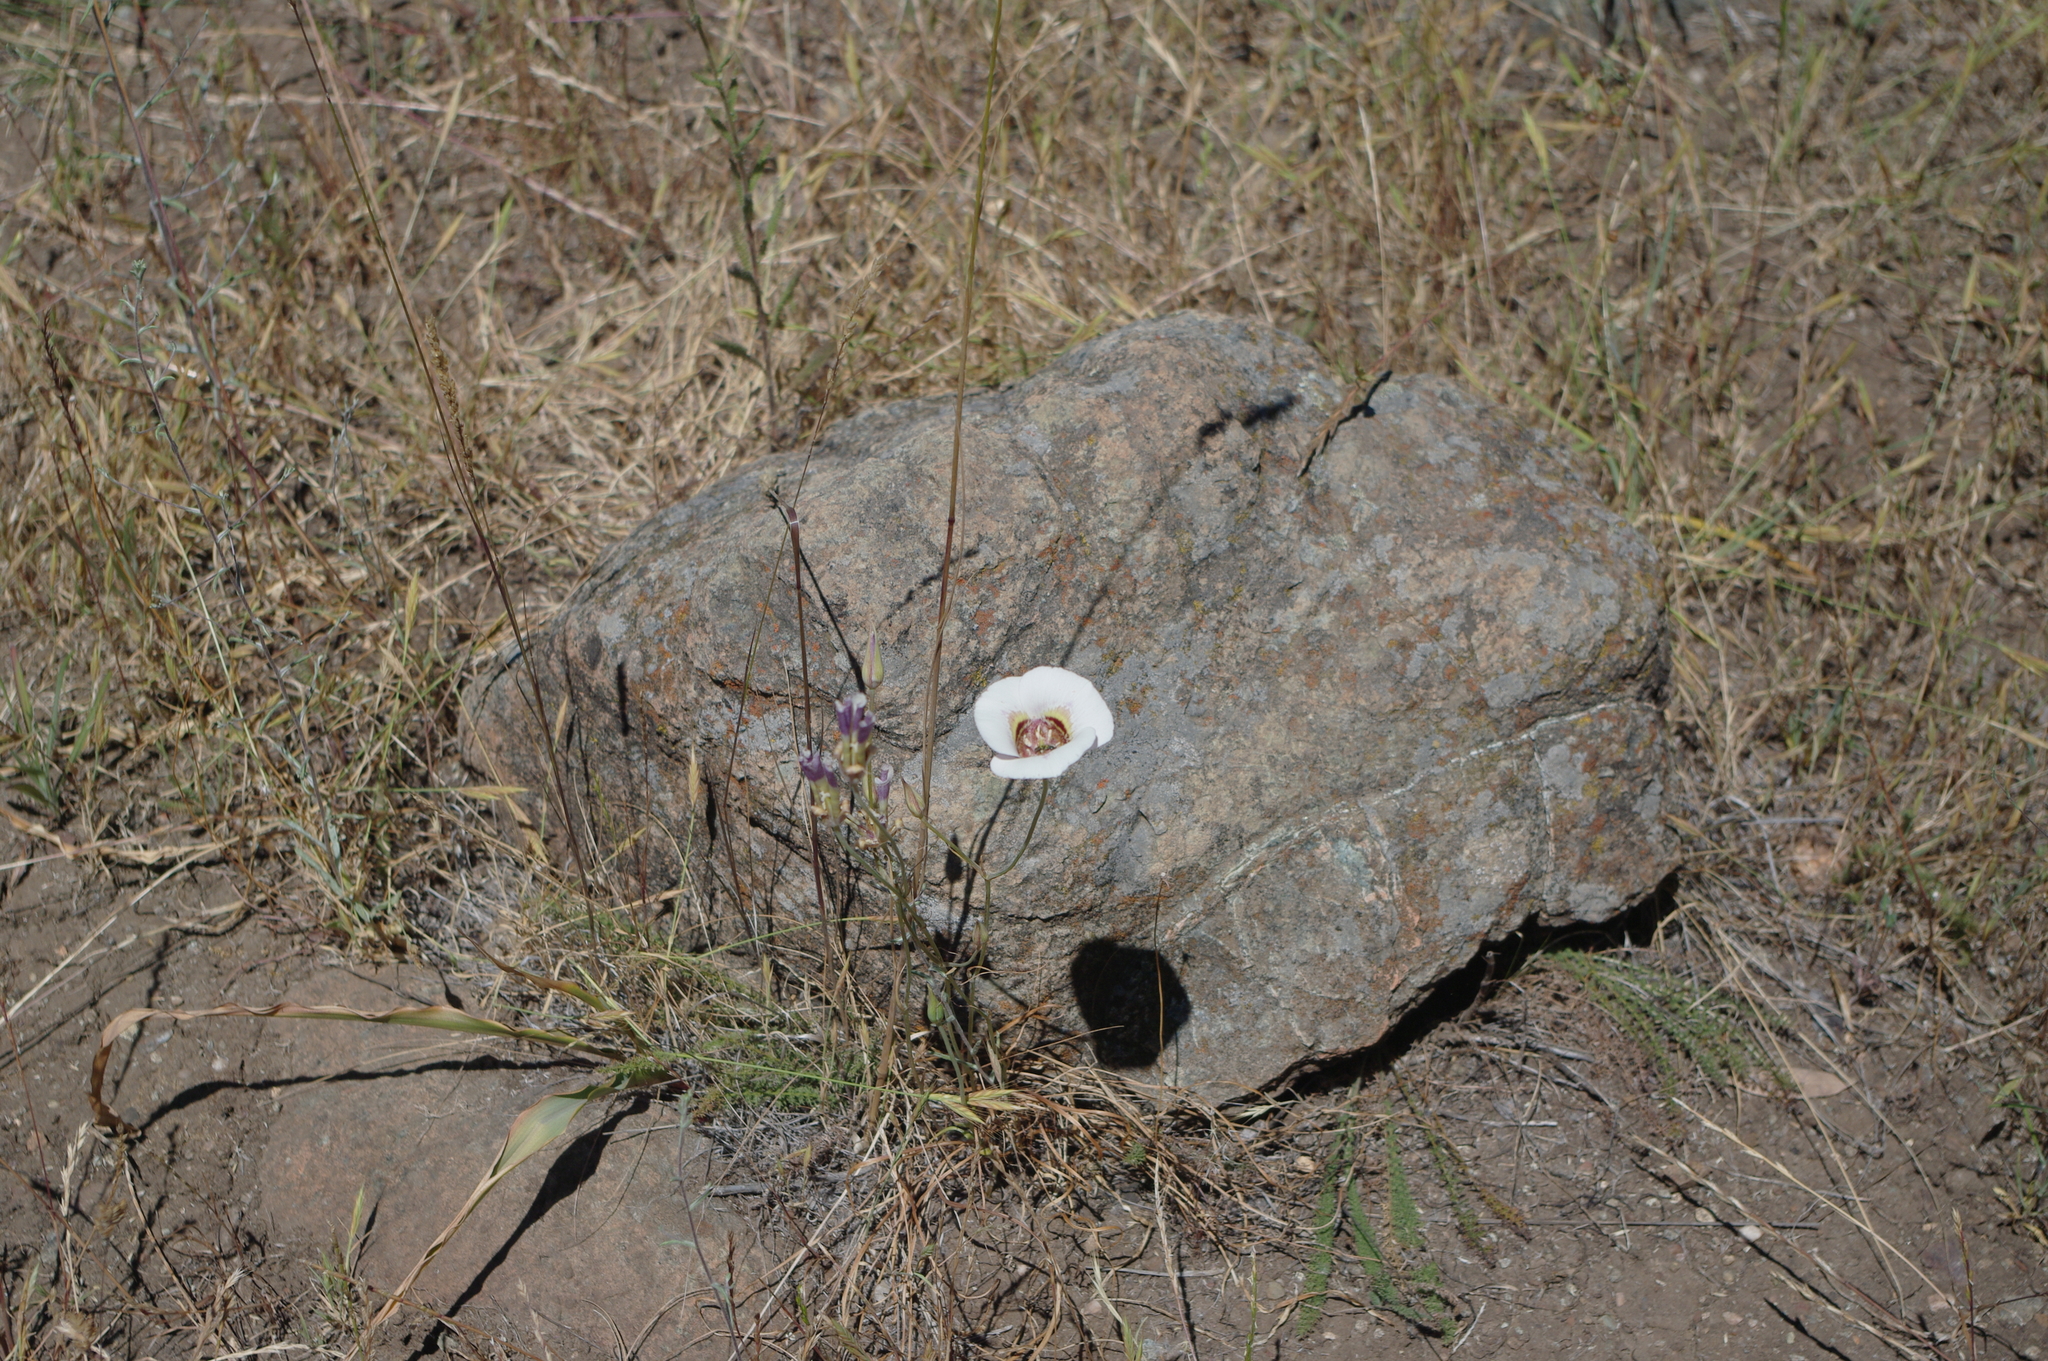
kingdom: Plantae
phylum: Tracheophyta
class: Liliopsida
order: Liliales
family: Liliaceae
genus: Calochortus
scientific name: Calochortus argillosus
